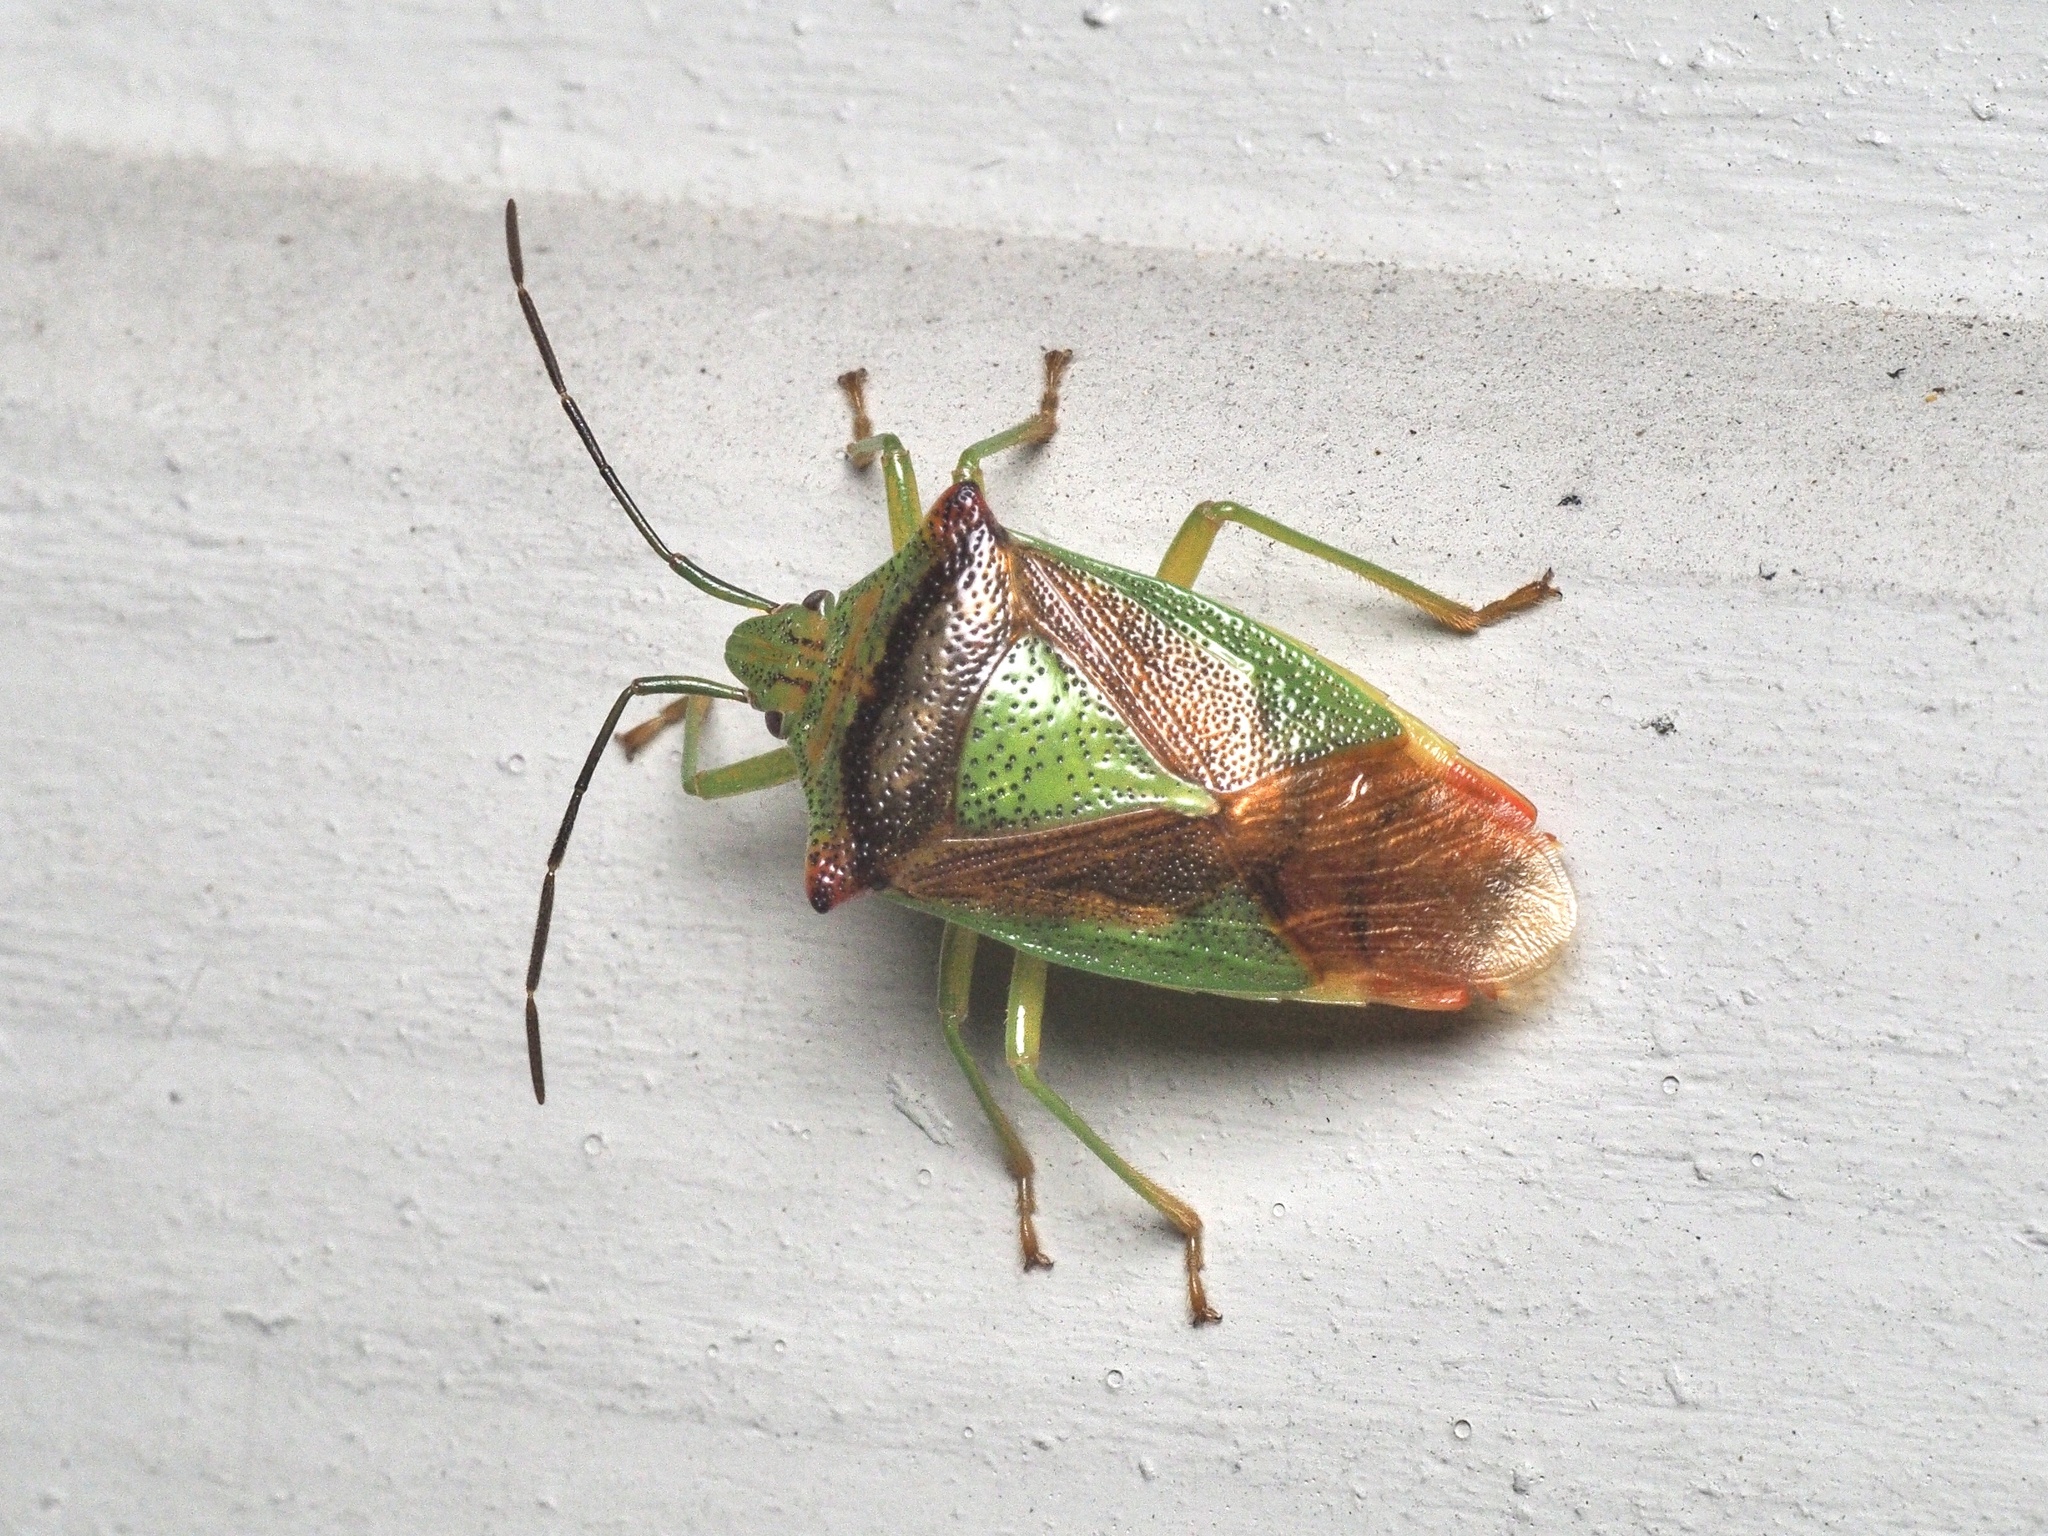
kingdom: Animalia
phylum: Arthropoda
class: Insecta
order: Hemiptera
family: Acanthosomatidae
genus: Acanthosoma
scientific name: Acanthosoma haemorrhoidale
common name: Hawthorn shieldbug
